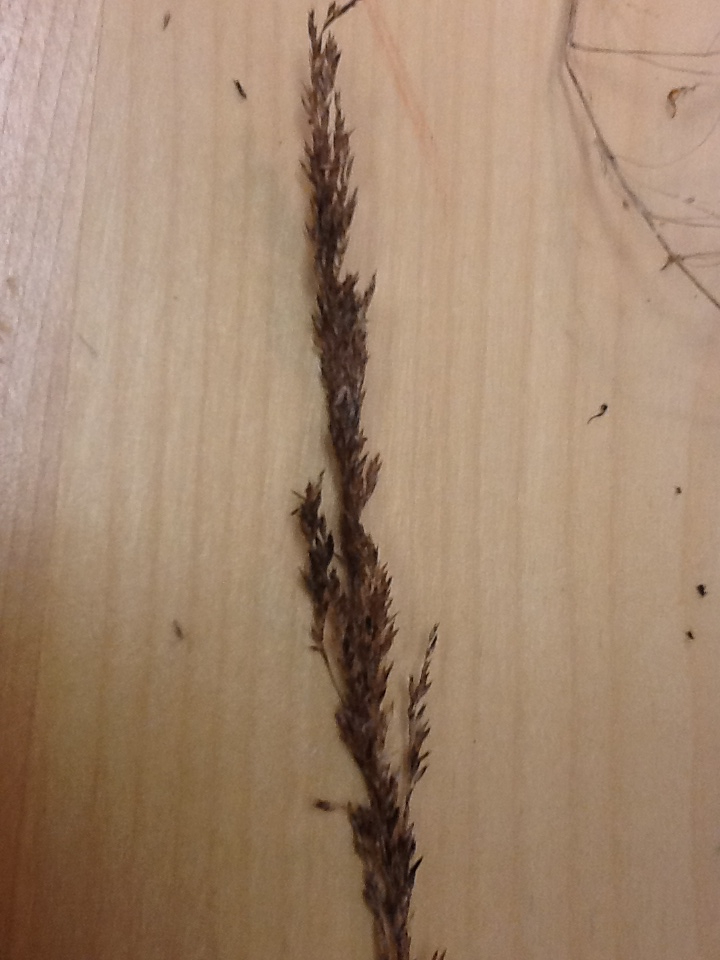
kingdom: Plantae
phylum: Tracheophyta
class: Liliopsida
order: Poales
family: Poaceae
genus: Calamagrostis
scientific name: Calamagrostis canadensis
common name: Canada bluejoint
